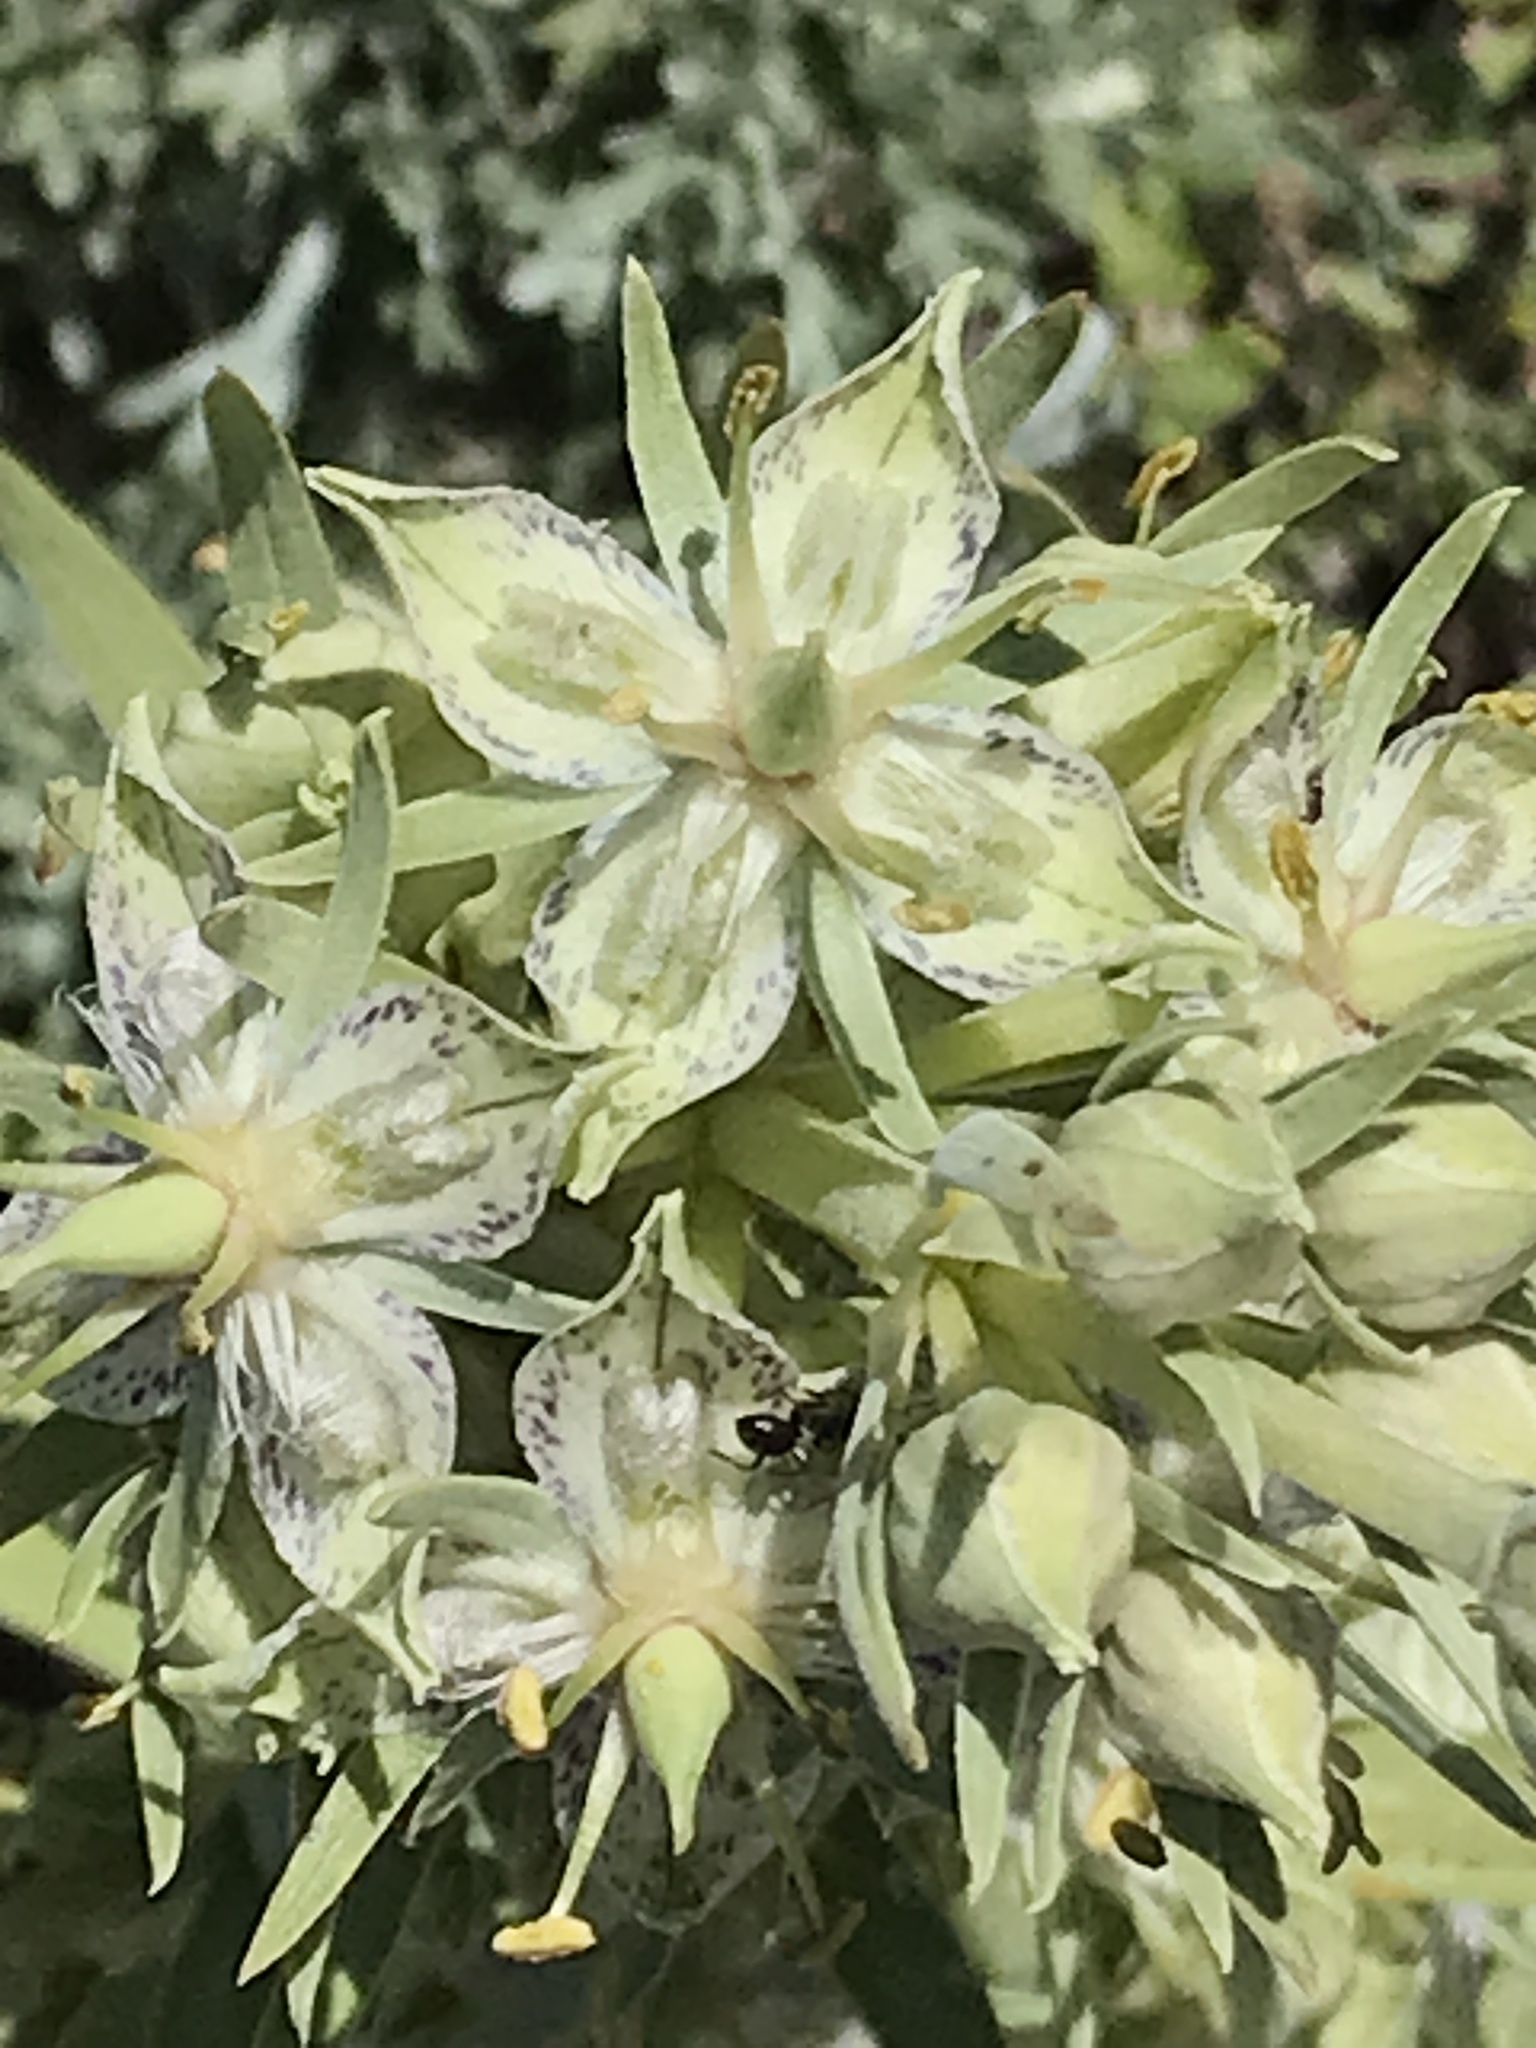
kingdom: Plantae
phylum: Tracheophyta
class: Magnoliopsida
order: Gentianales
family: Gentianaceae
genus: Frasera
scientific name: Frasera speciosa
